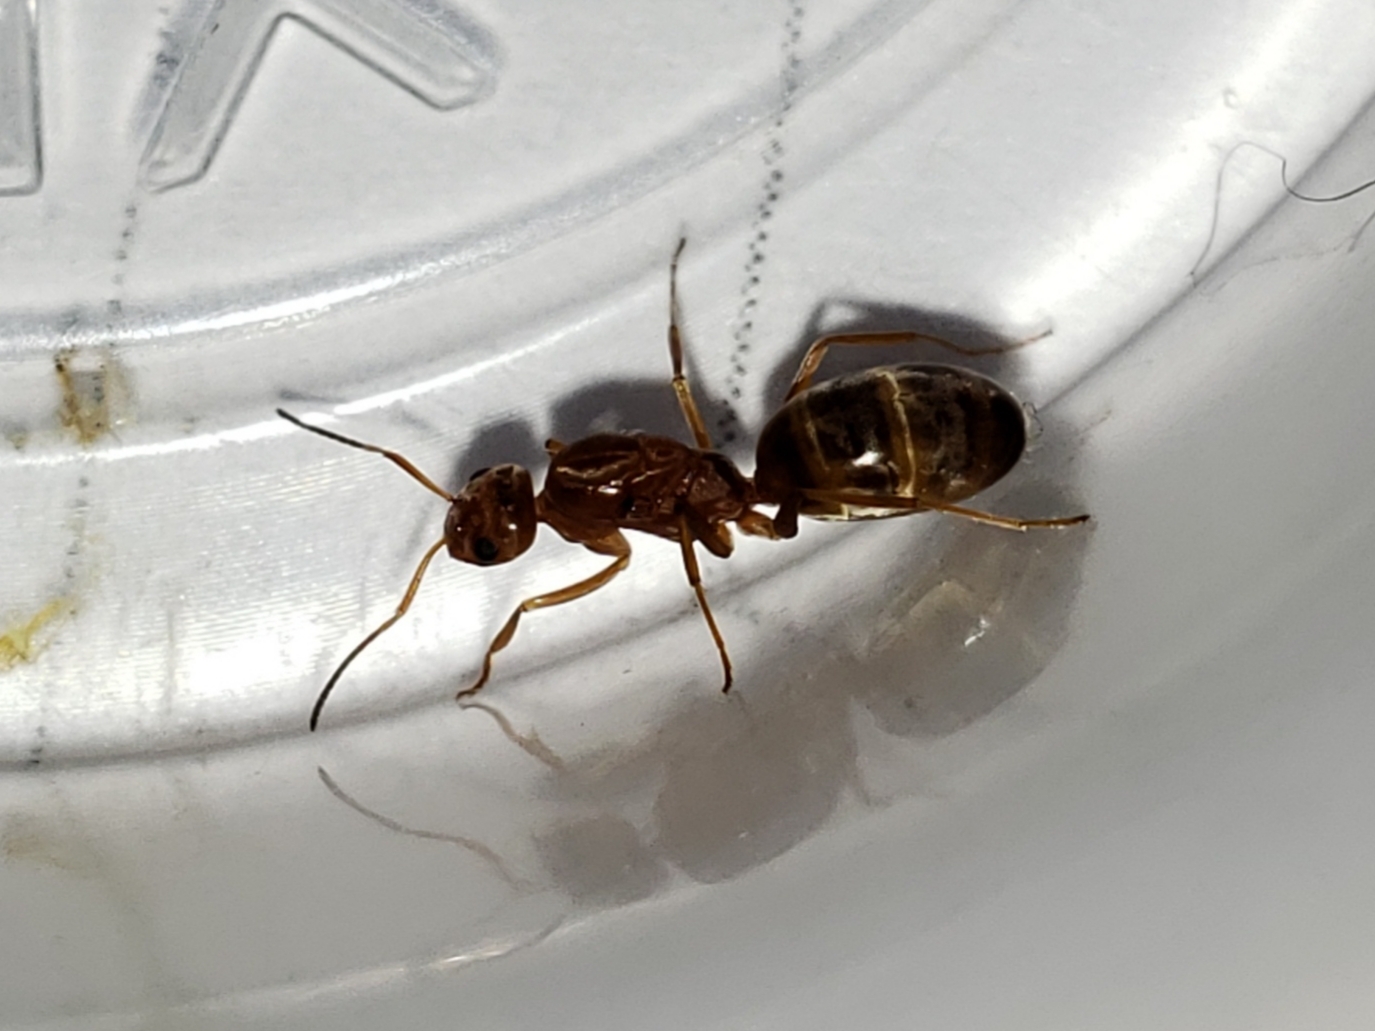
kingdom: Animalia
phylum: Arthropoda
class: Insecta
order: Hymenoptera
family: Formicidae
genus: Dorymyrmex
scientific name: Dorymyrmex bureni
